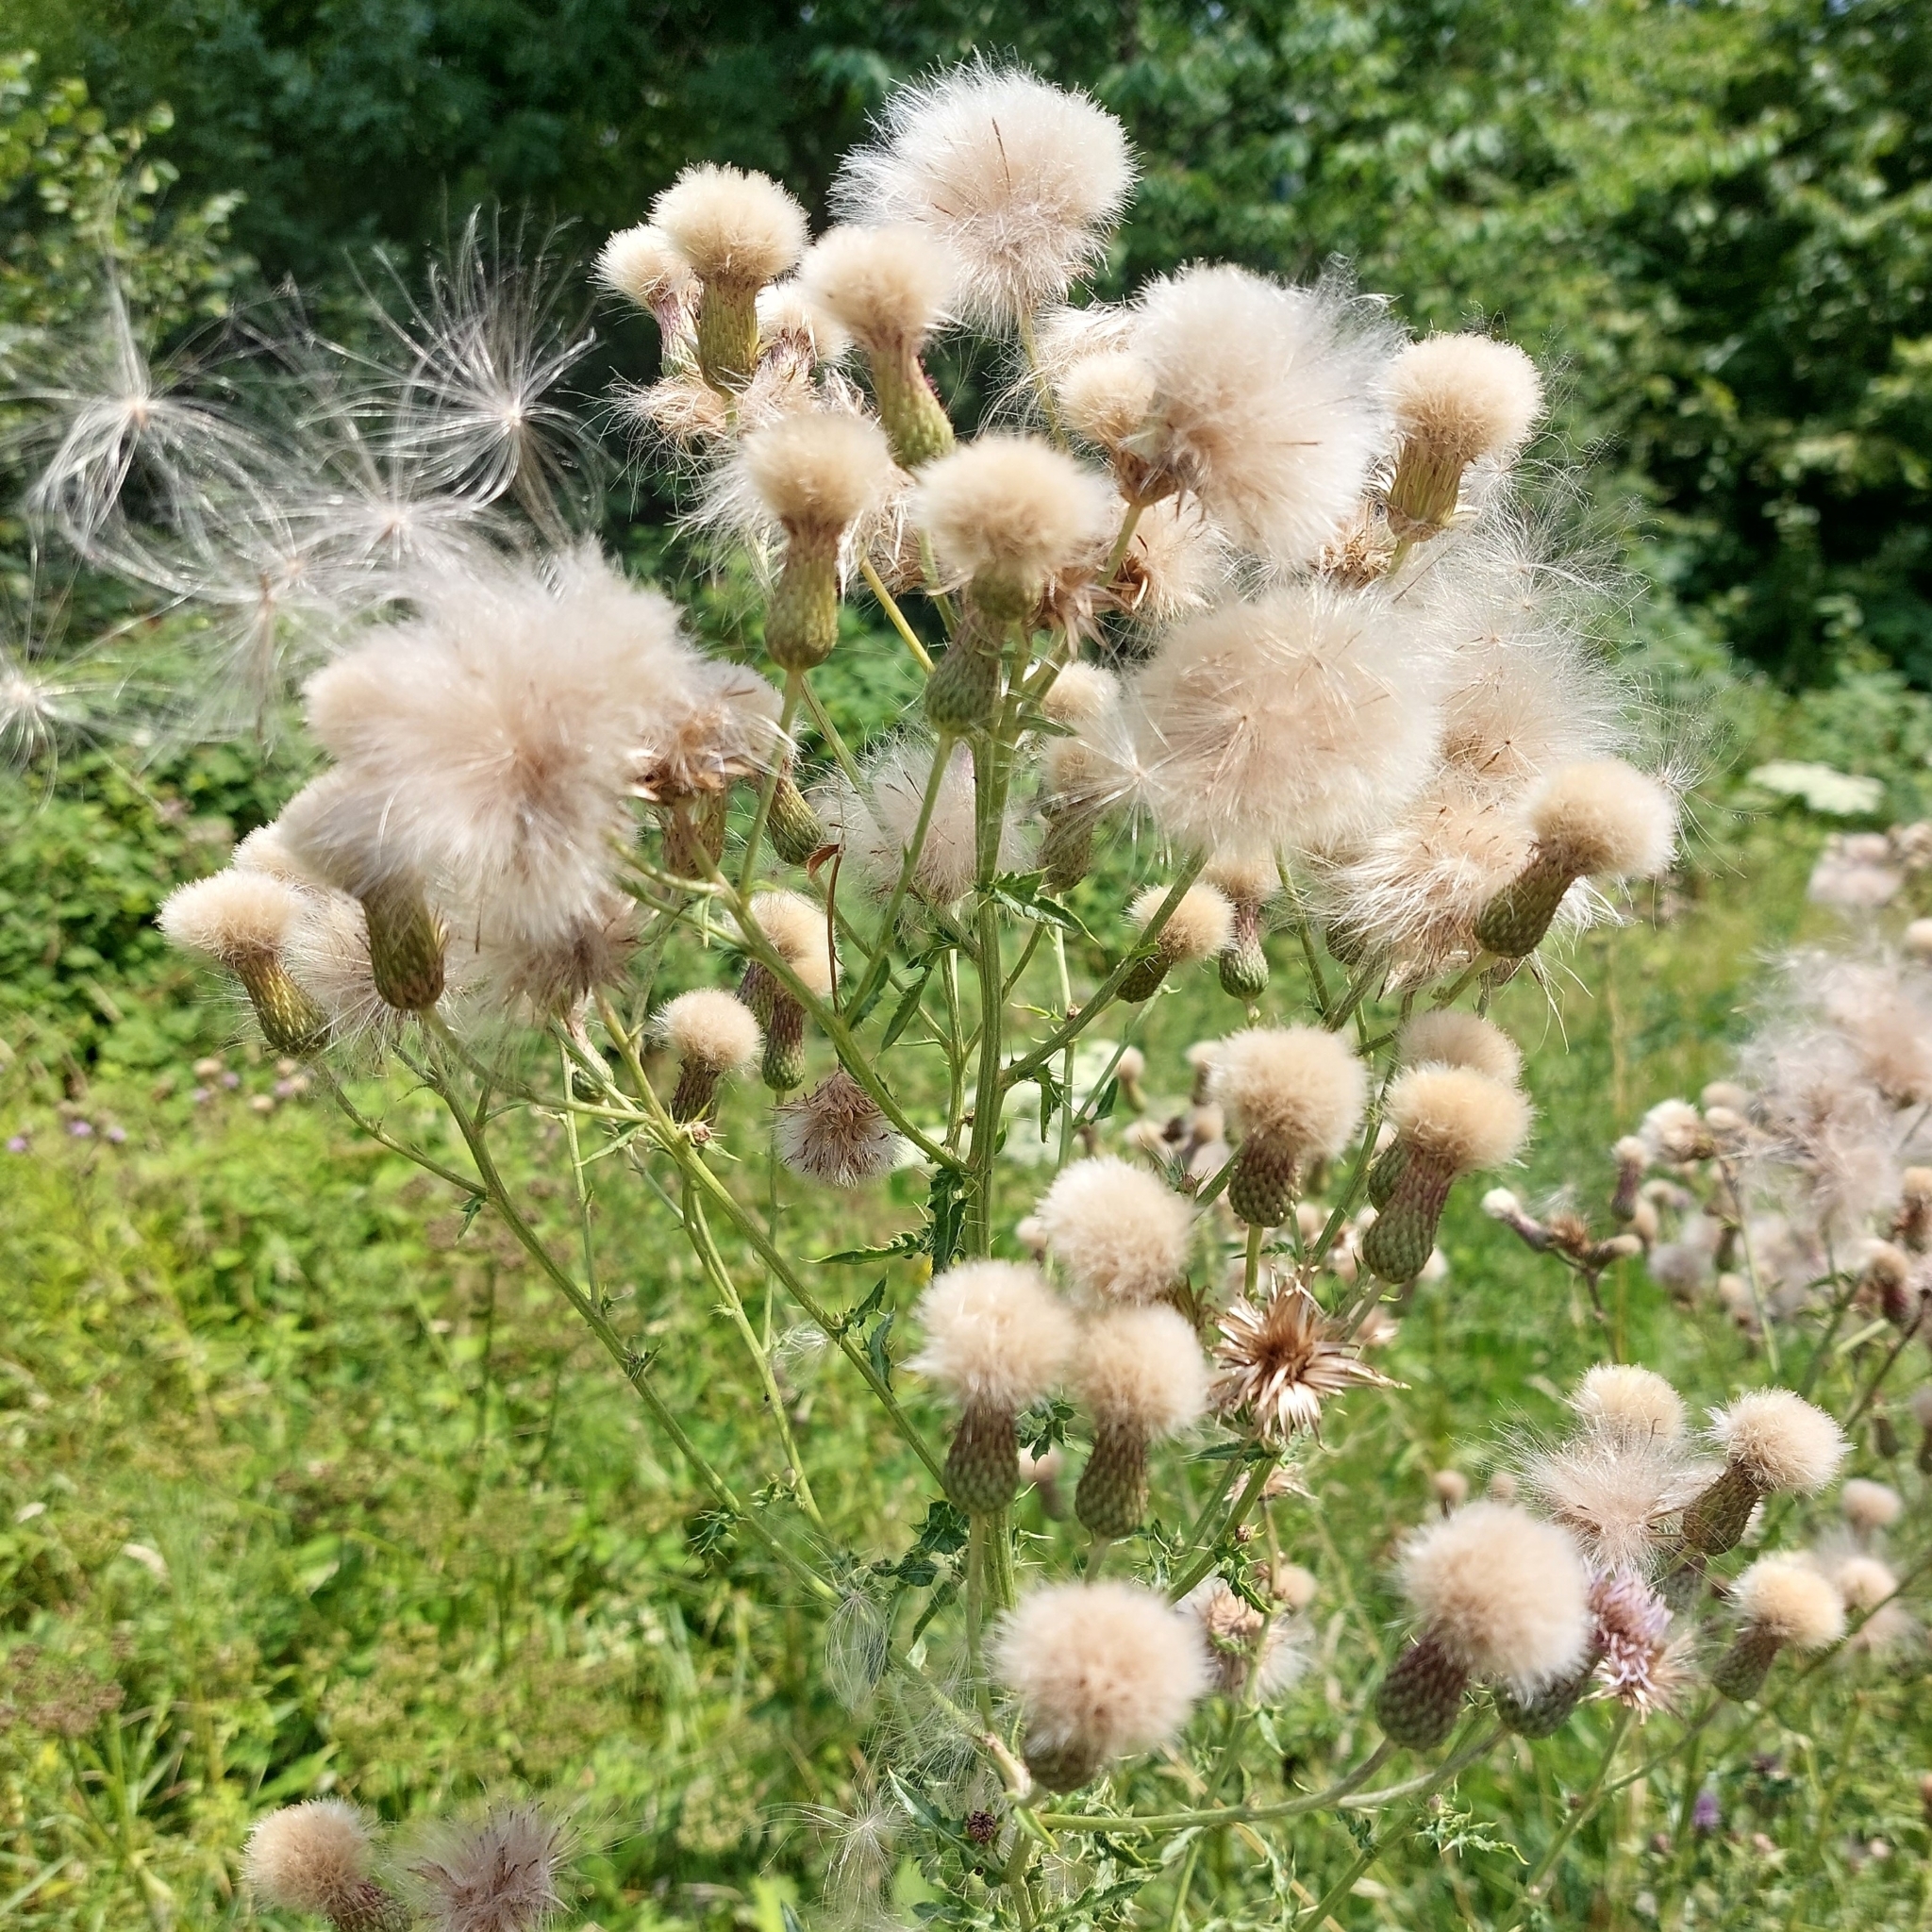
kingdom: Plantae
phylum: Tracheophyta
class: Magnoliopsida
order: Asterales
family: Asteraceae
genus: Cirsium
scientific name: Cirsium arvense
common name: Creeping thistle
